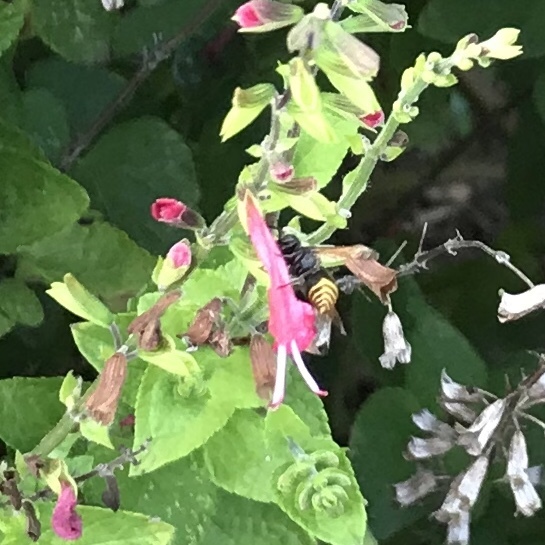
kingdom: Animalia
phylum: Arthropoda
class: Insecta
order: Hymenoptera
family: Vespidae
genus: Brachygastra
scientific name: Brachygastra mellifica
